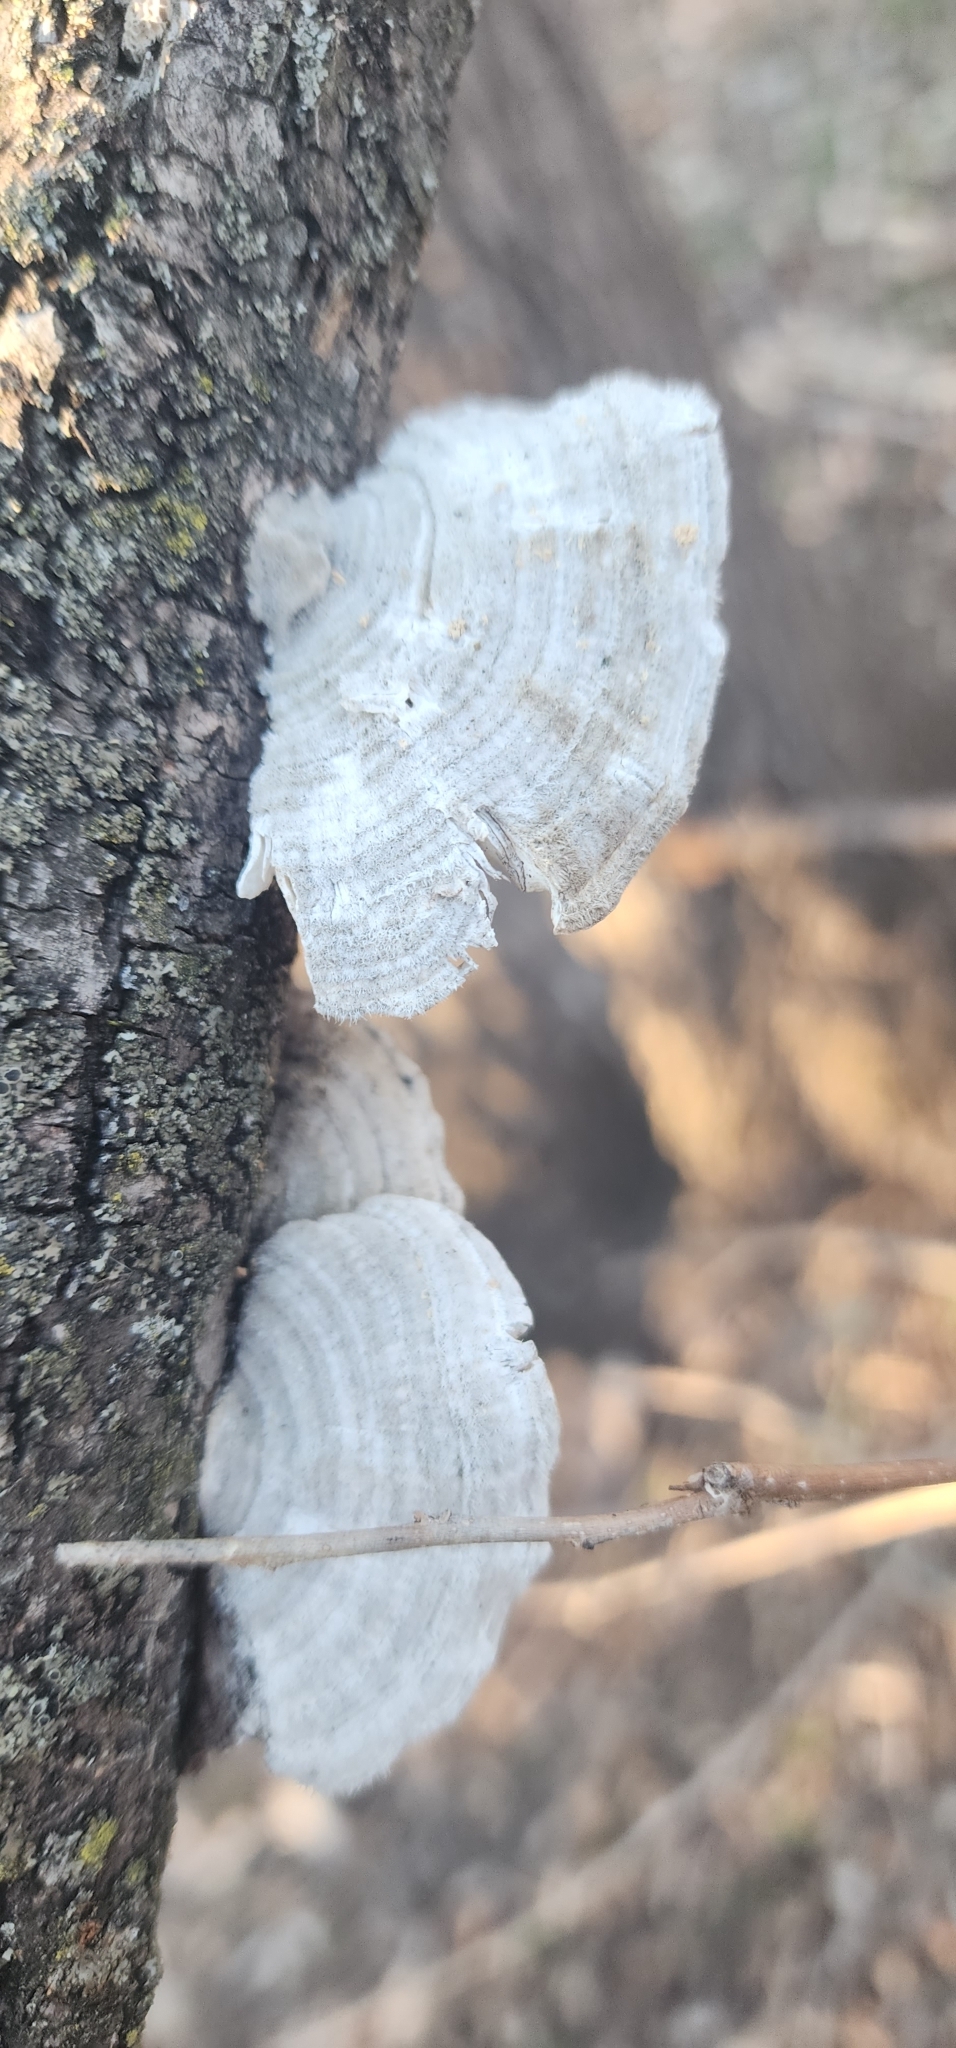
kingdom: Fungi
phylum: Basidiomycota
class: Agaricomycetes
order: Polyporales
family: Polyporaceae
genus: Lenzites
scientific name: Lenzites betulinus
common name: Birch mazegill
